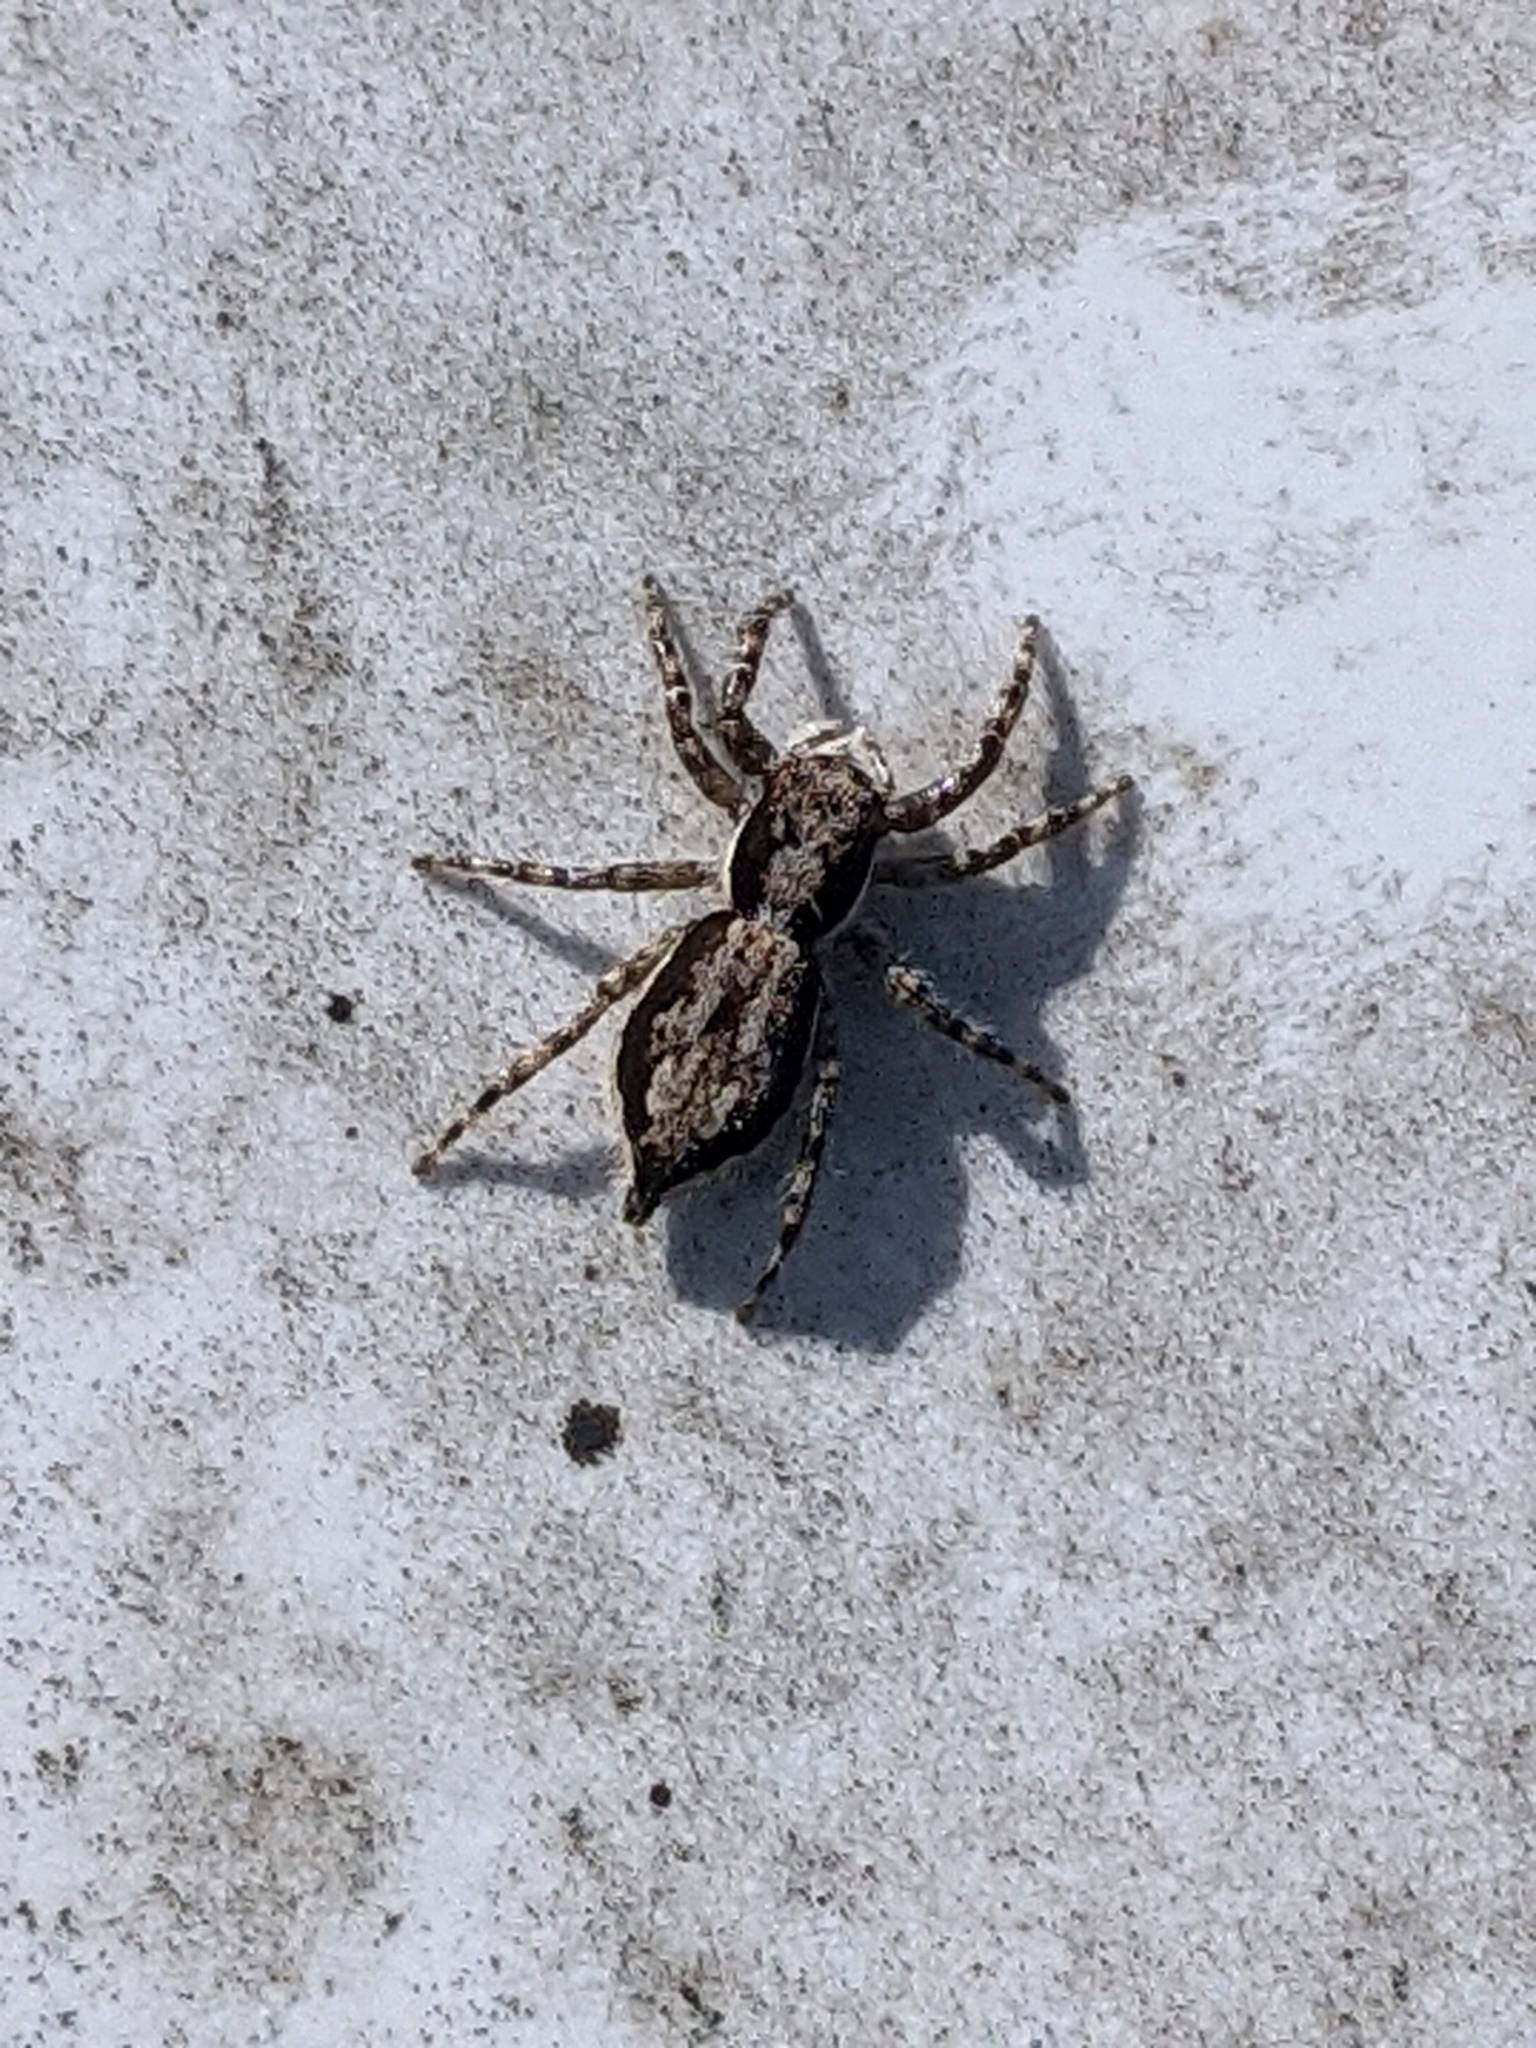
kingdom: Animalia
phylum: Arthropoda
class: Arachnida
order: Araneae
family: Salticidae
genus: Menemerus
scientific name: Menemerus bivittatus
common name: Gray wall jumper
